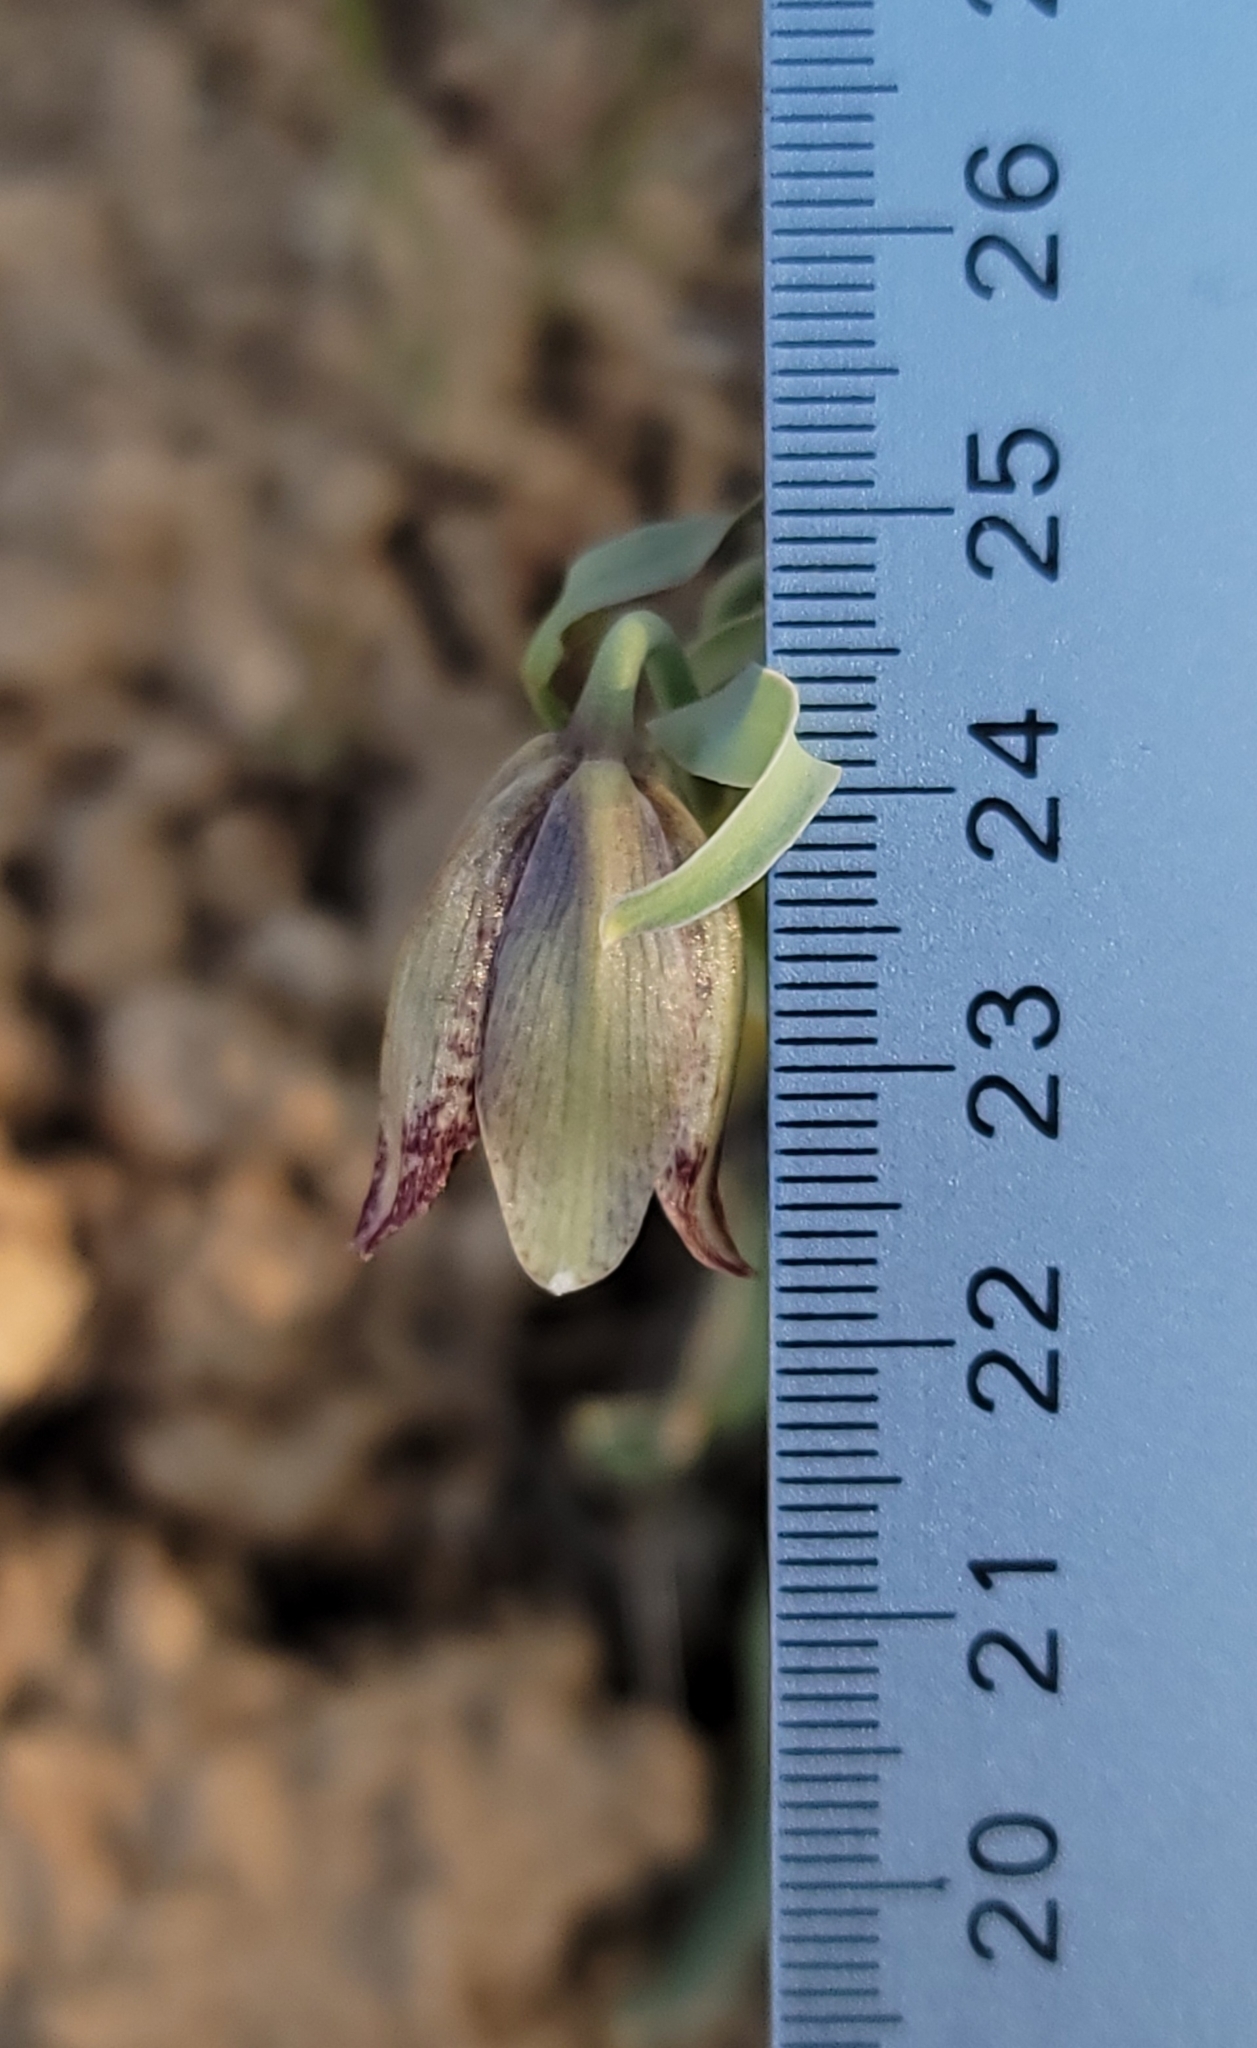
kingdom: Plantae
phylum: Tracheophyta
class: Liliopsida
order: Liliales
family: Liliaceae
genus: Fritillaria
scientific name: Fritillaria agrestis
